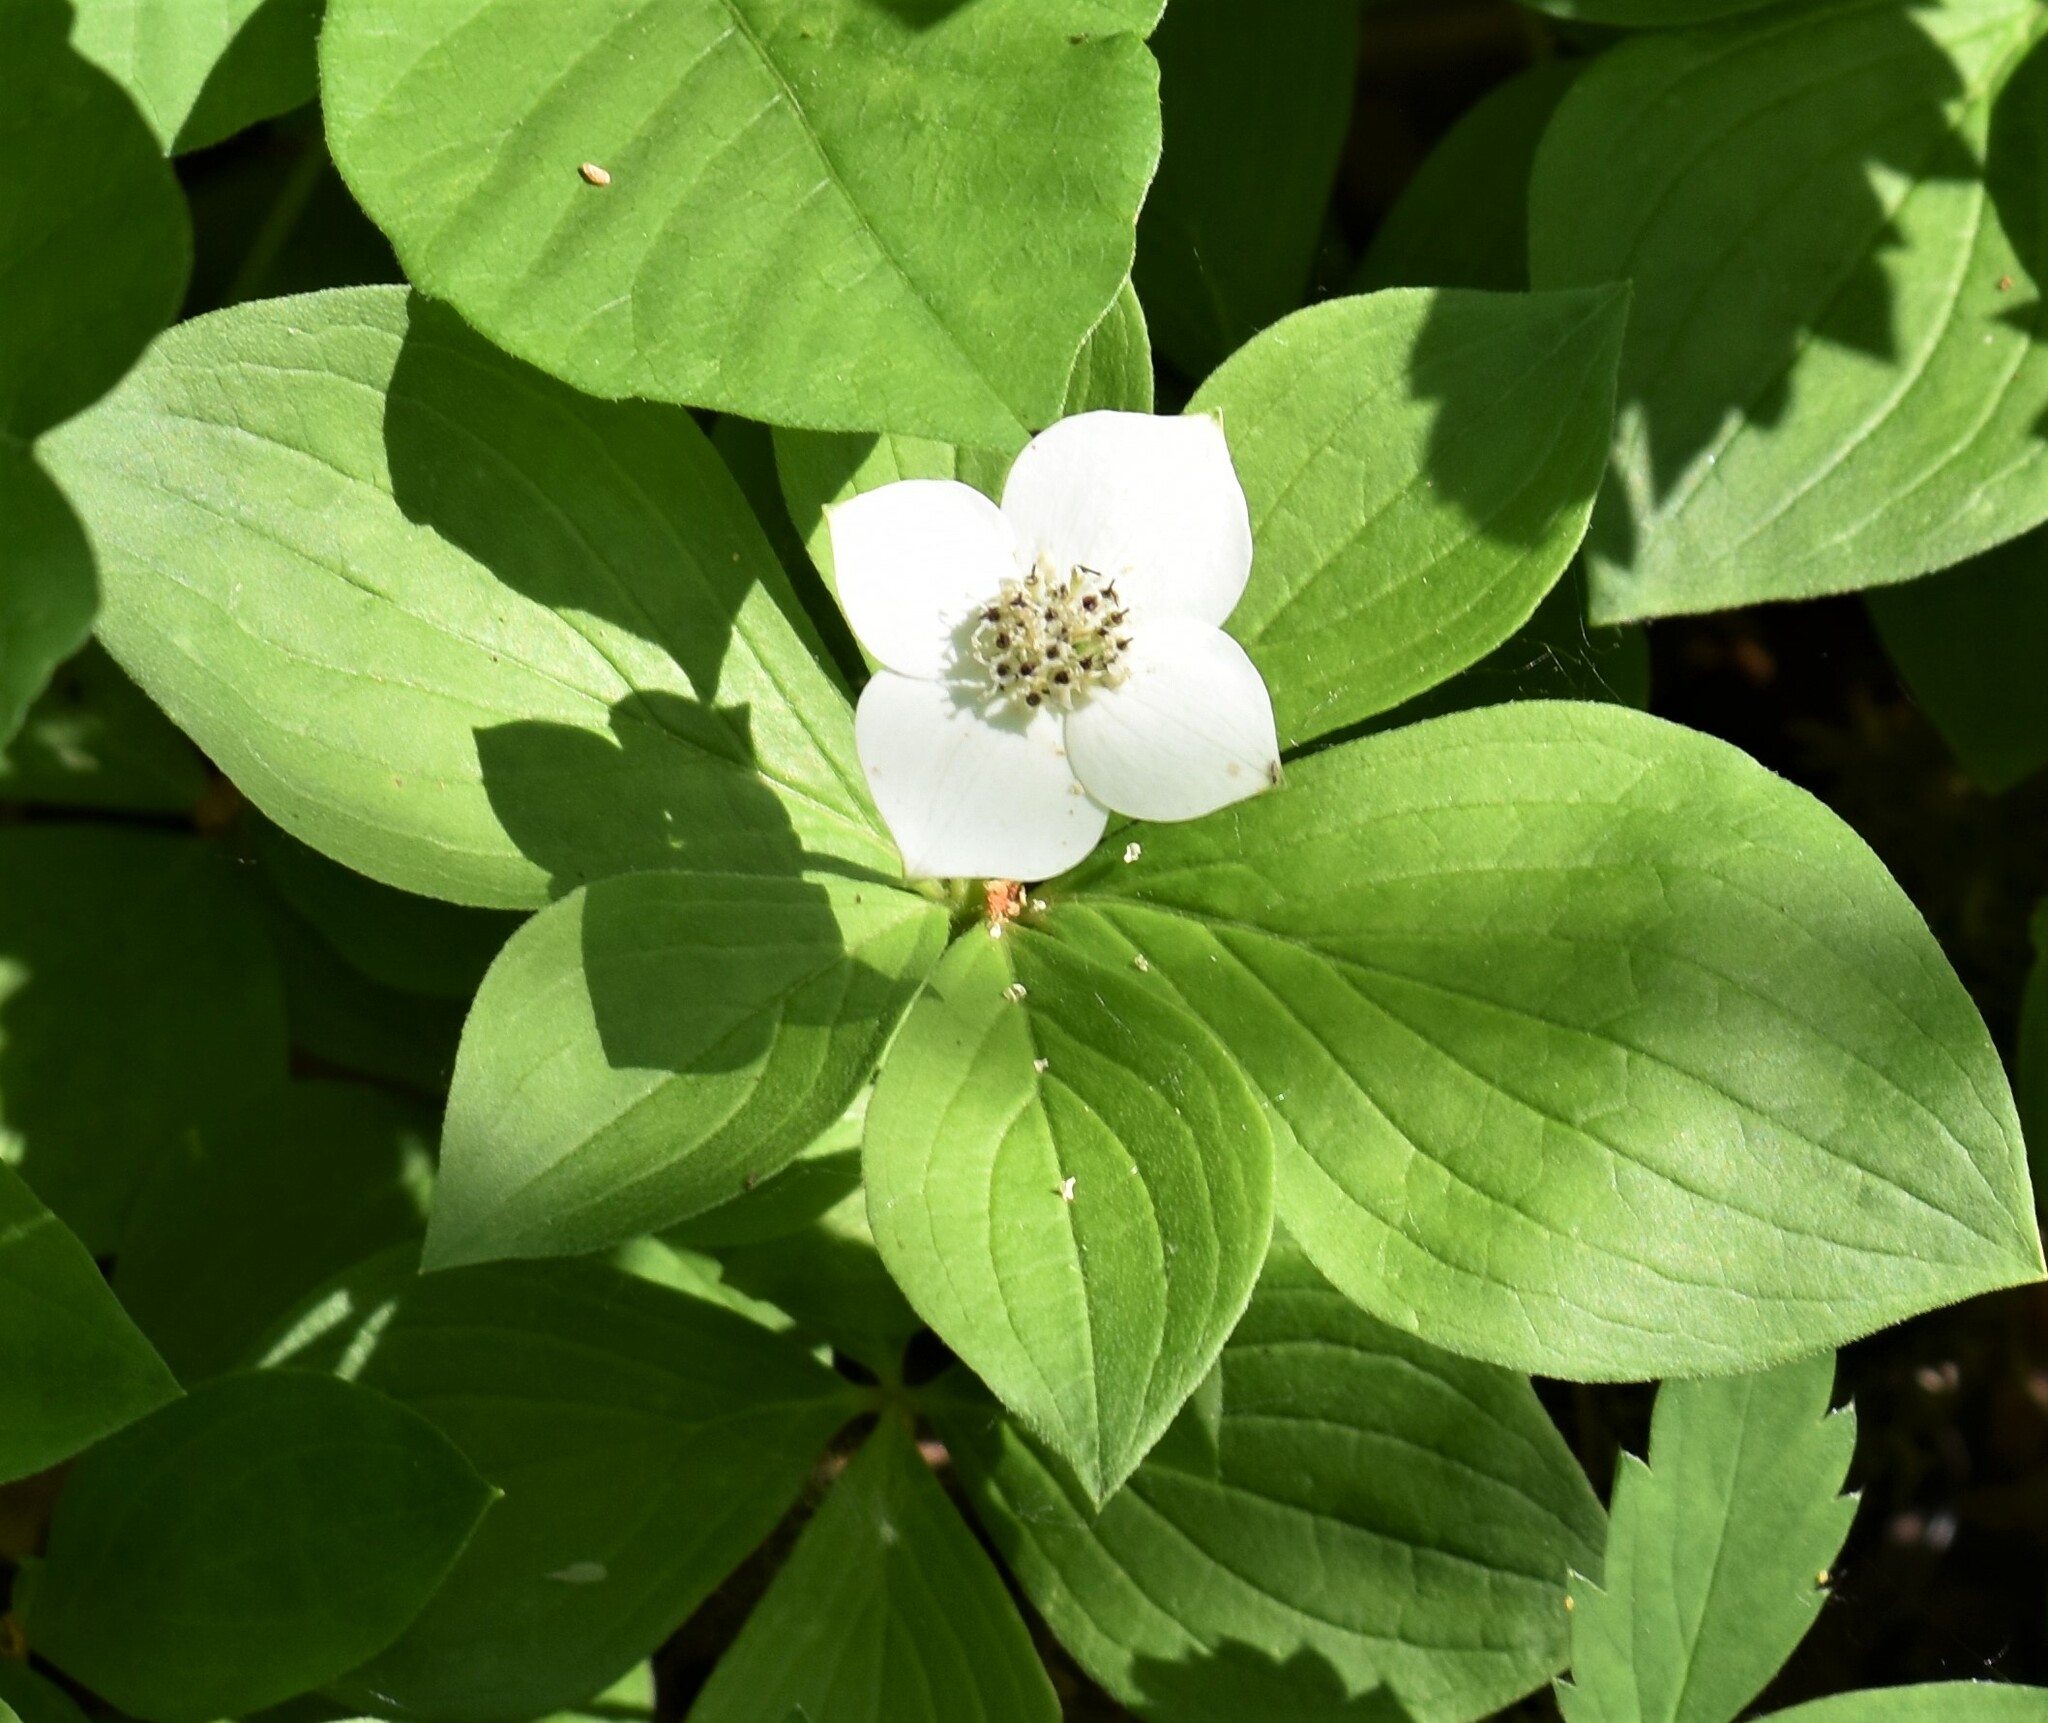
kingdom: Plantae
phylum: Tracheophyta
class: Magnoliopsida
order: Cornales
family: Cornaceae
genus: Cornus
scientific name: Cornus canadensis
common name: Creeping dogwood
